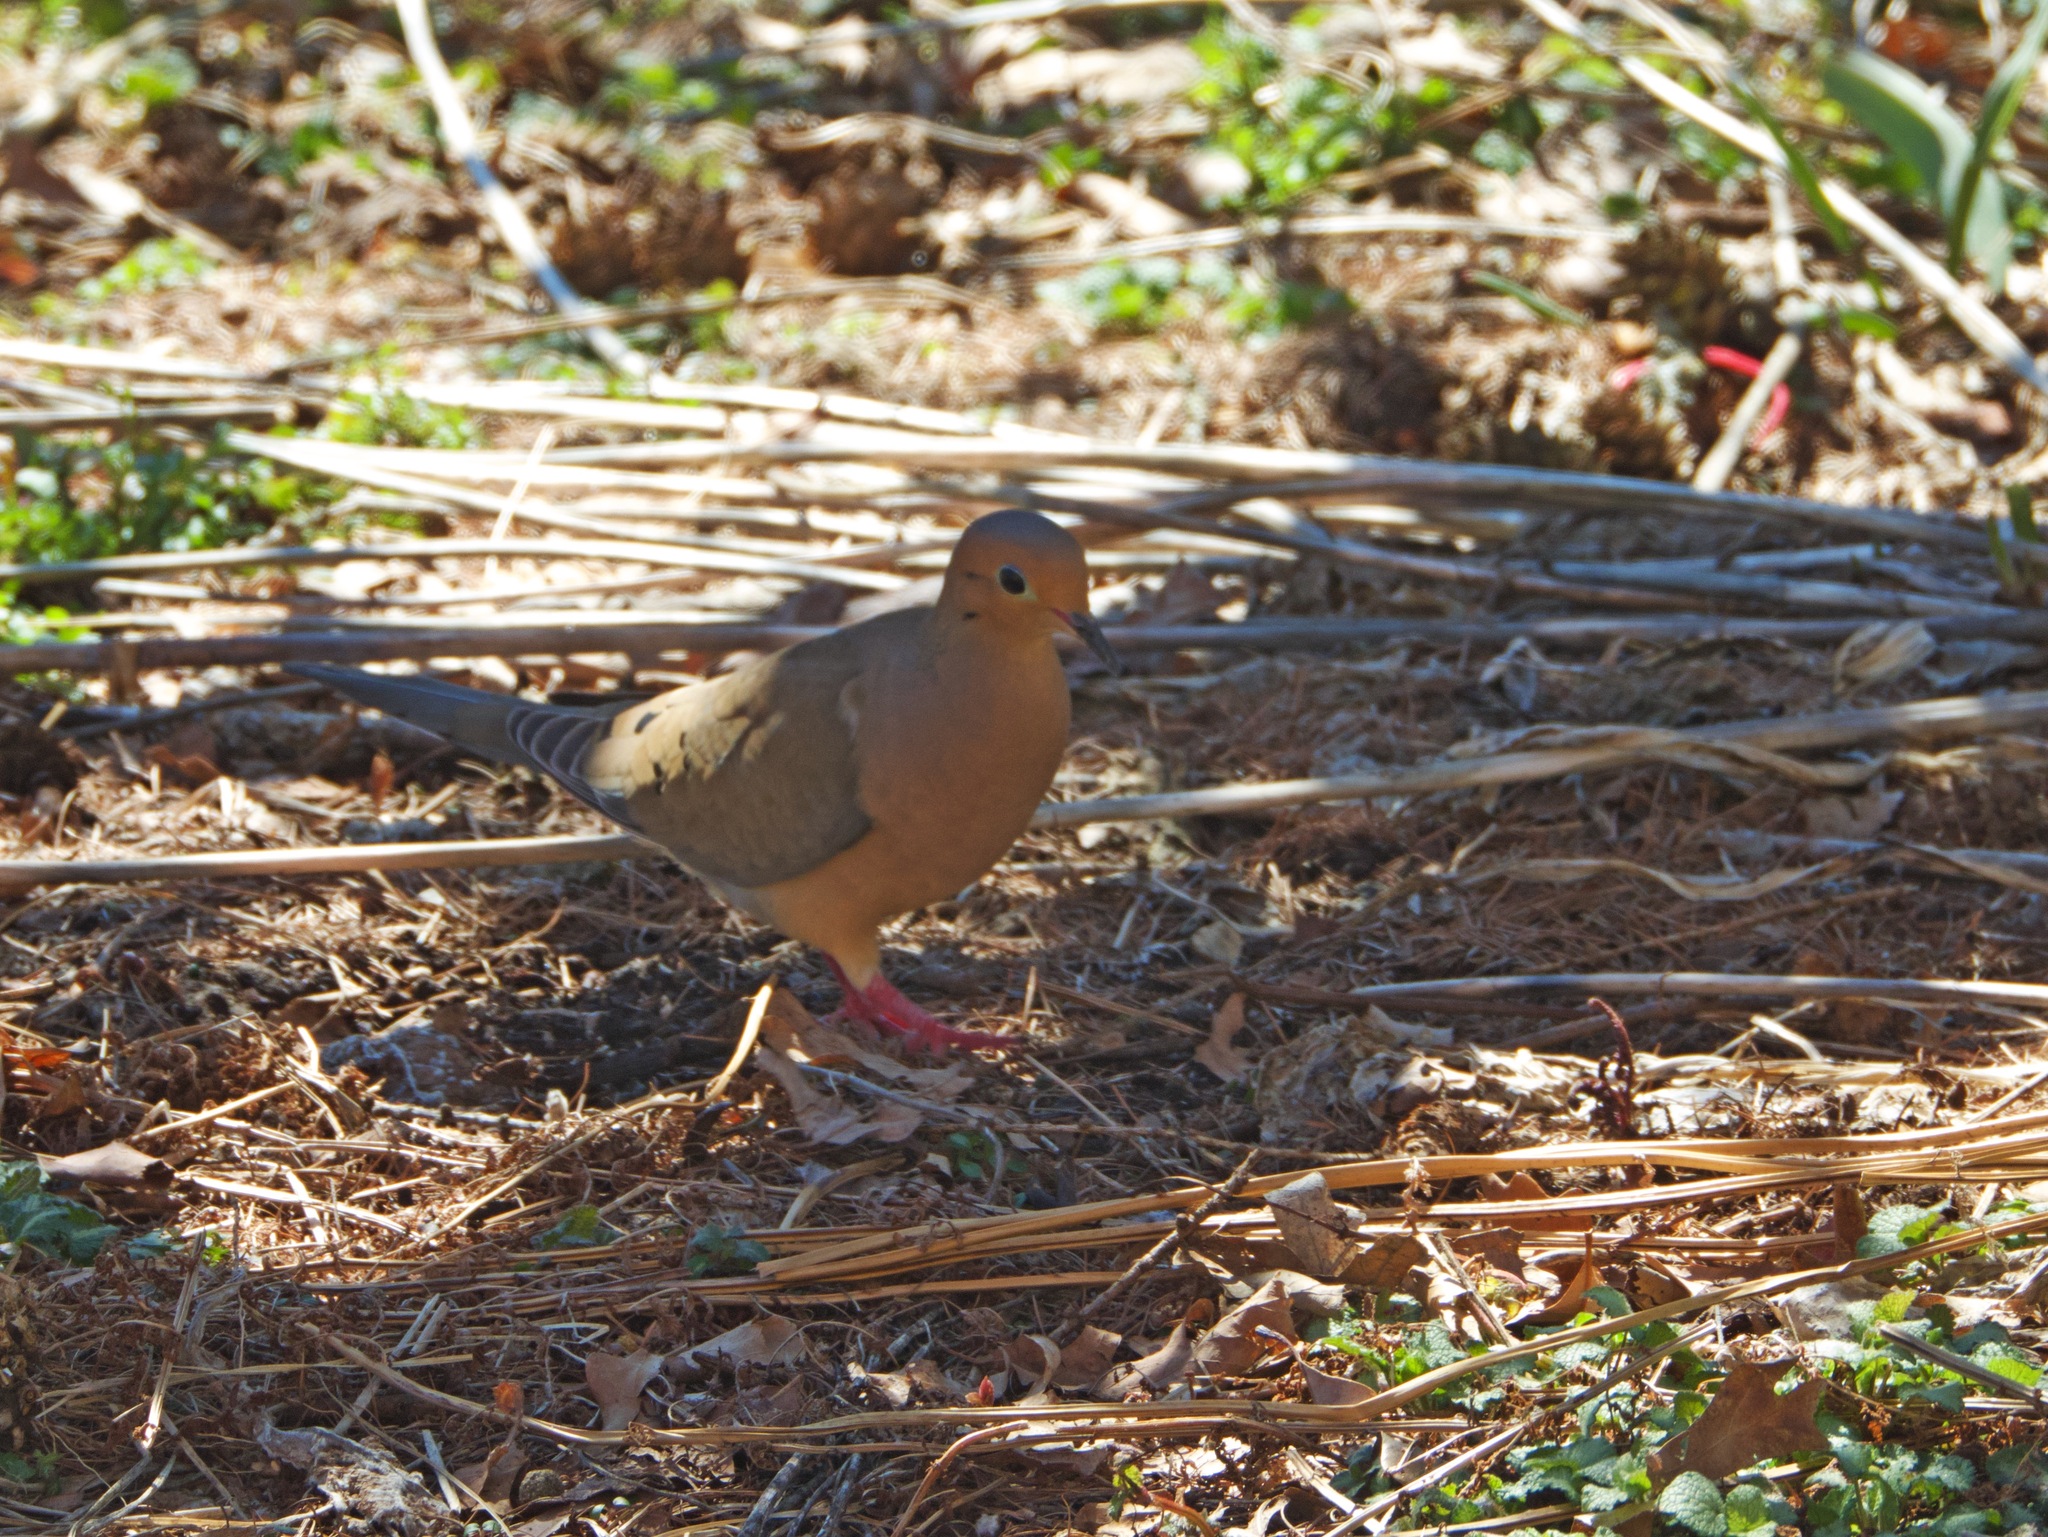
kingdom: Animalia
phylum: Chordata
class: Aves
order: Columbiformes
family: Columbidae
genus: Zenaida
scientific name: Zenaida macroura
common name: Mourning dove
